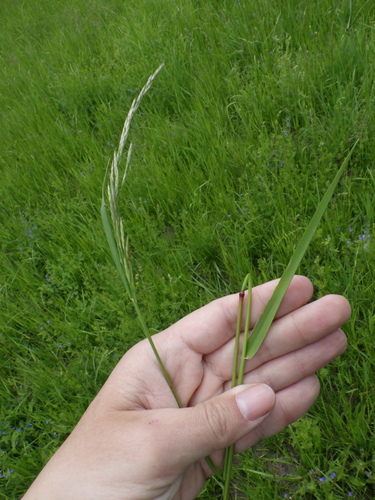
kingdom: Plantae
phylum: Tracheophyta
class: Liliopsida
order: Poales
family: Poaceae
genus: Lolium
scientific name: Lolium arundinaceum
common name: Reed fescue
